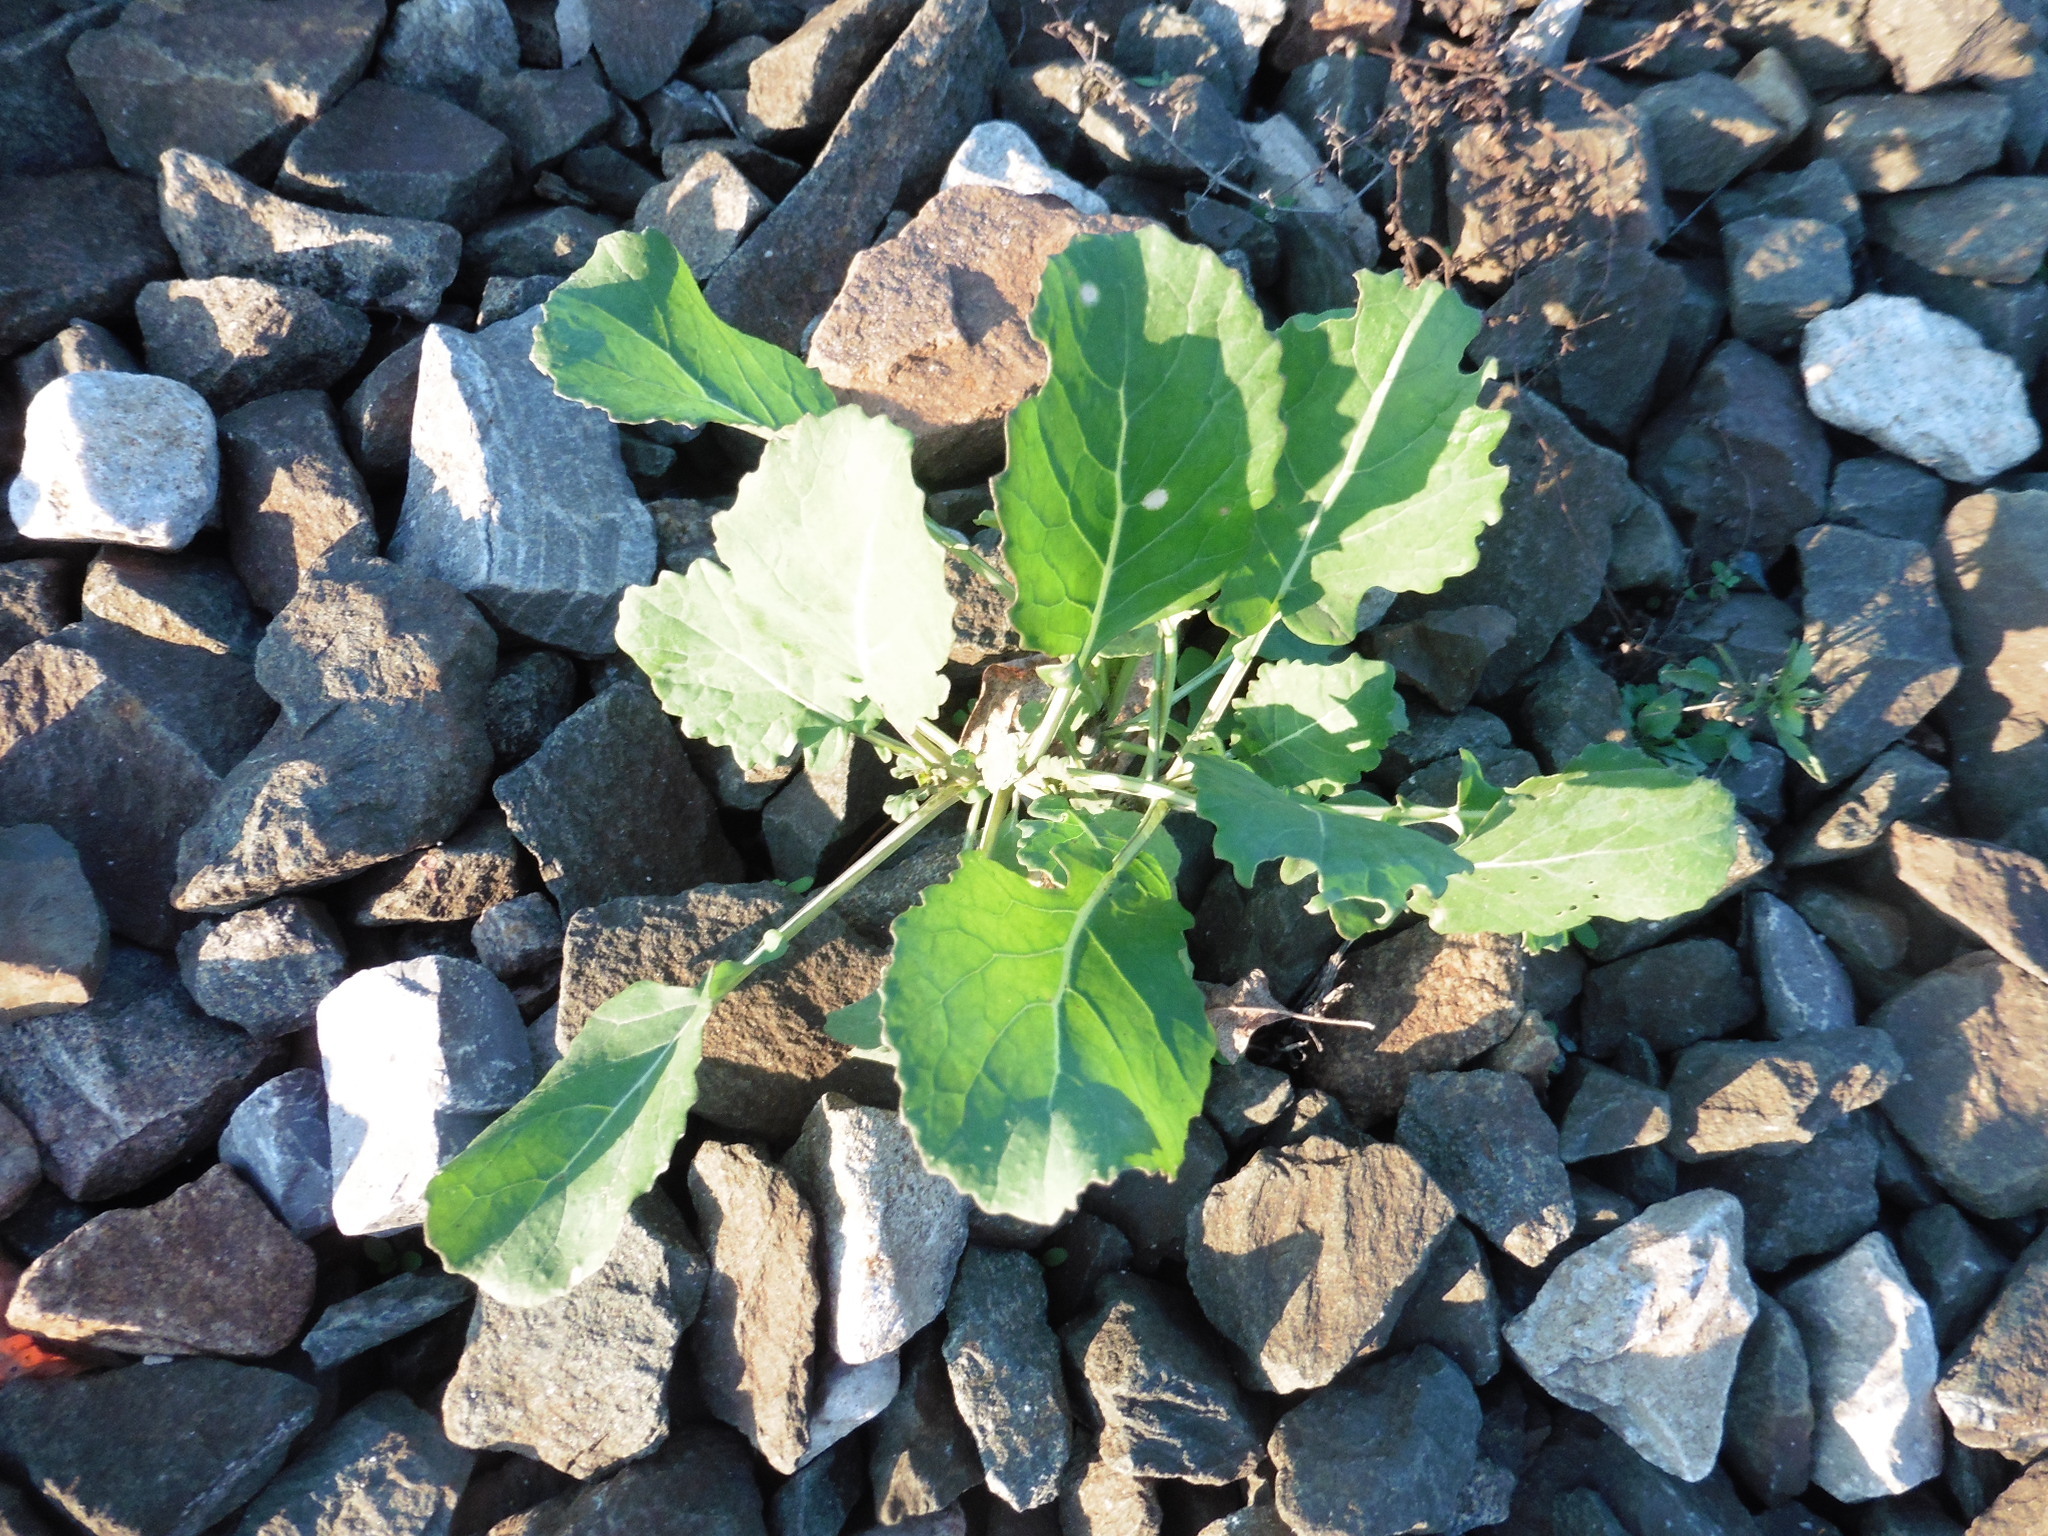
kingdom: Plantae
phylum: Tracheophyta
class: Magnoliopsida
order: Brassicales
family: Brassicaceae
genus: Brassica
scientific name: Brassica napus
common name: Rape
